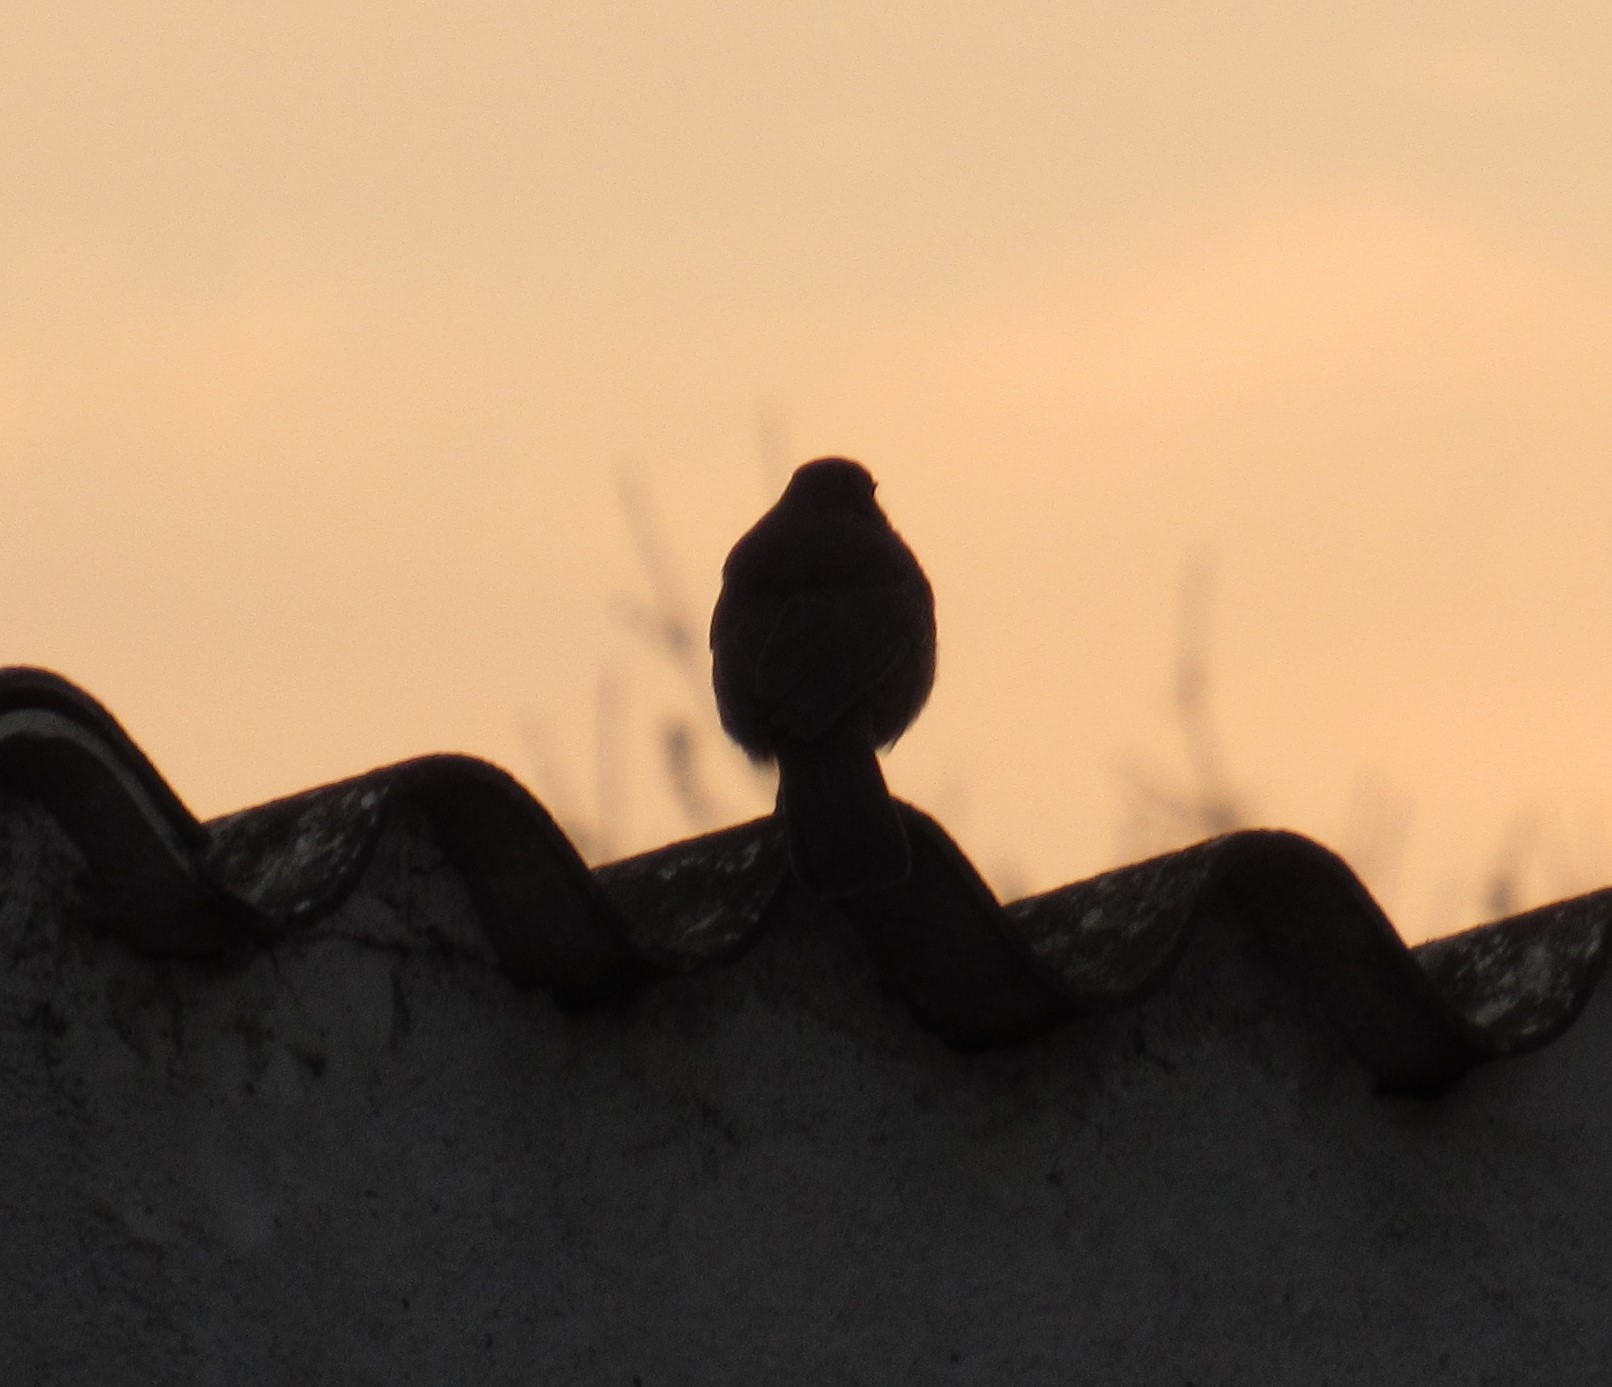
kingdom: Animalia
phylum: Chordata
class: Aves
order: Passeriformes
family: Passerellidae
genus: Melozone
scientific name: Melozone fusca
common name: Canyon towhee
